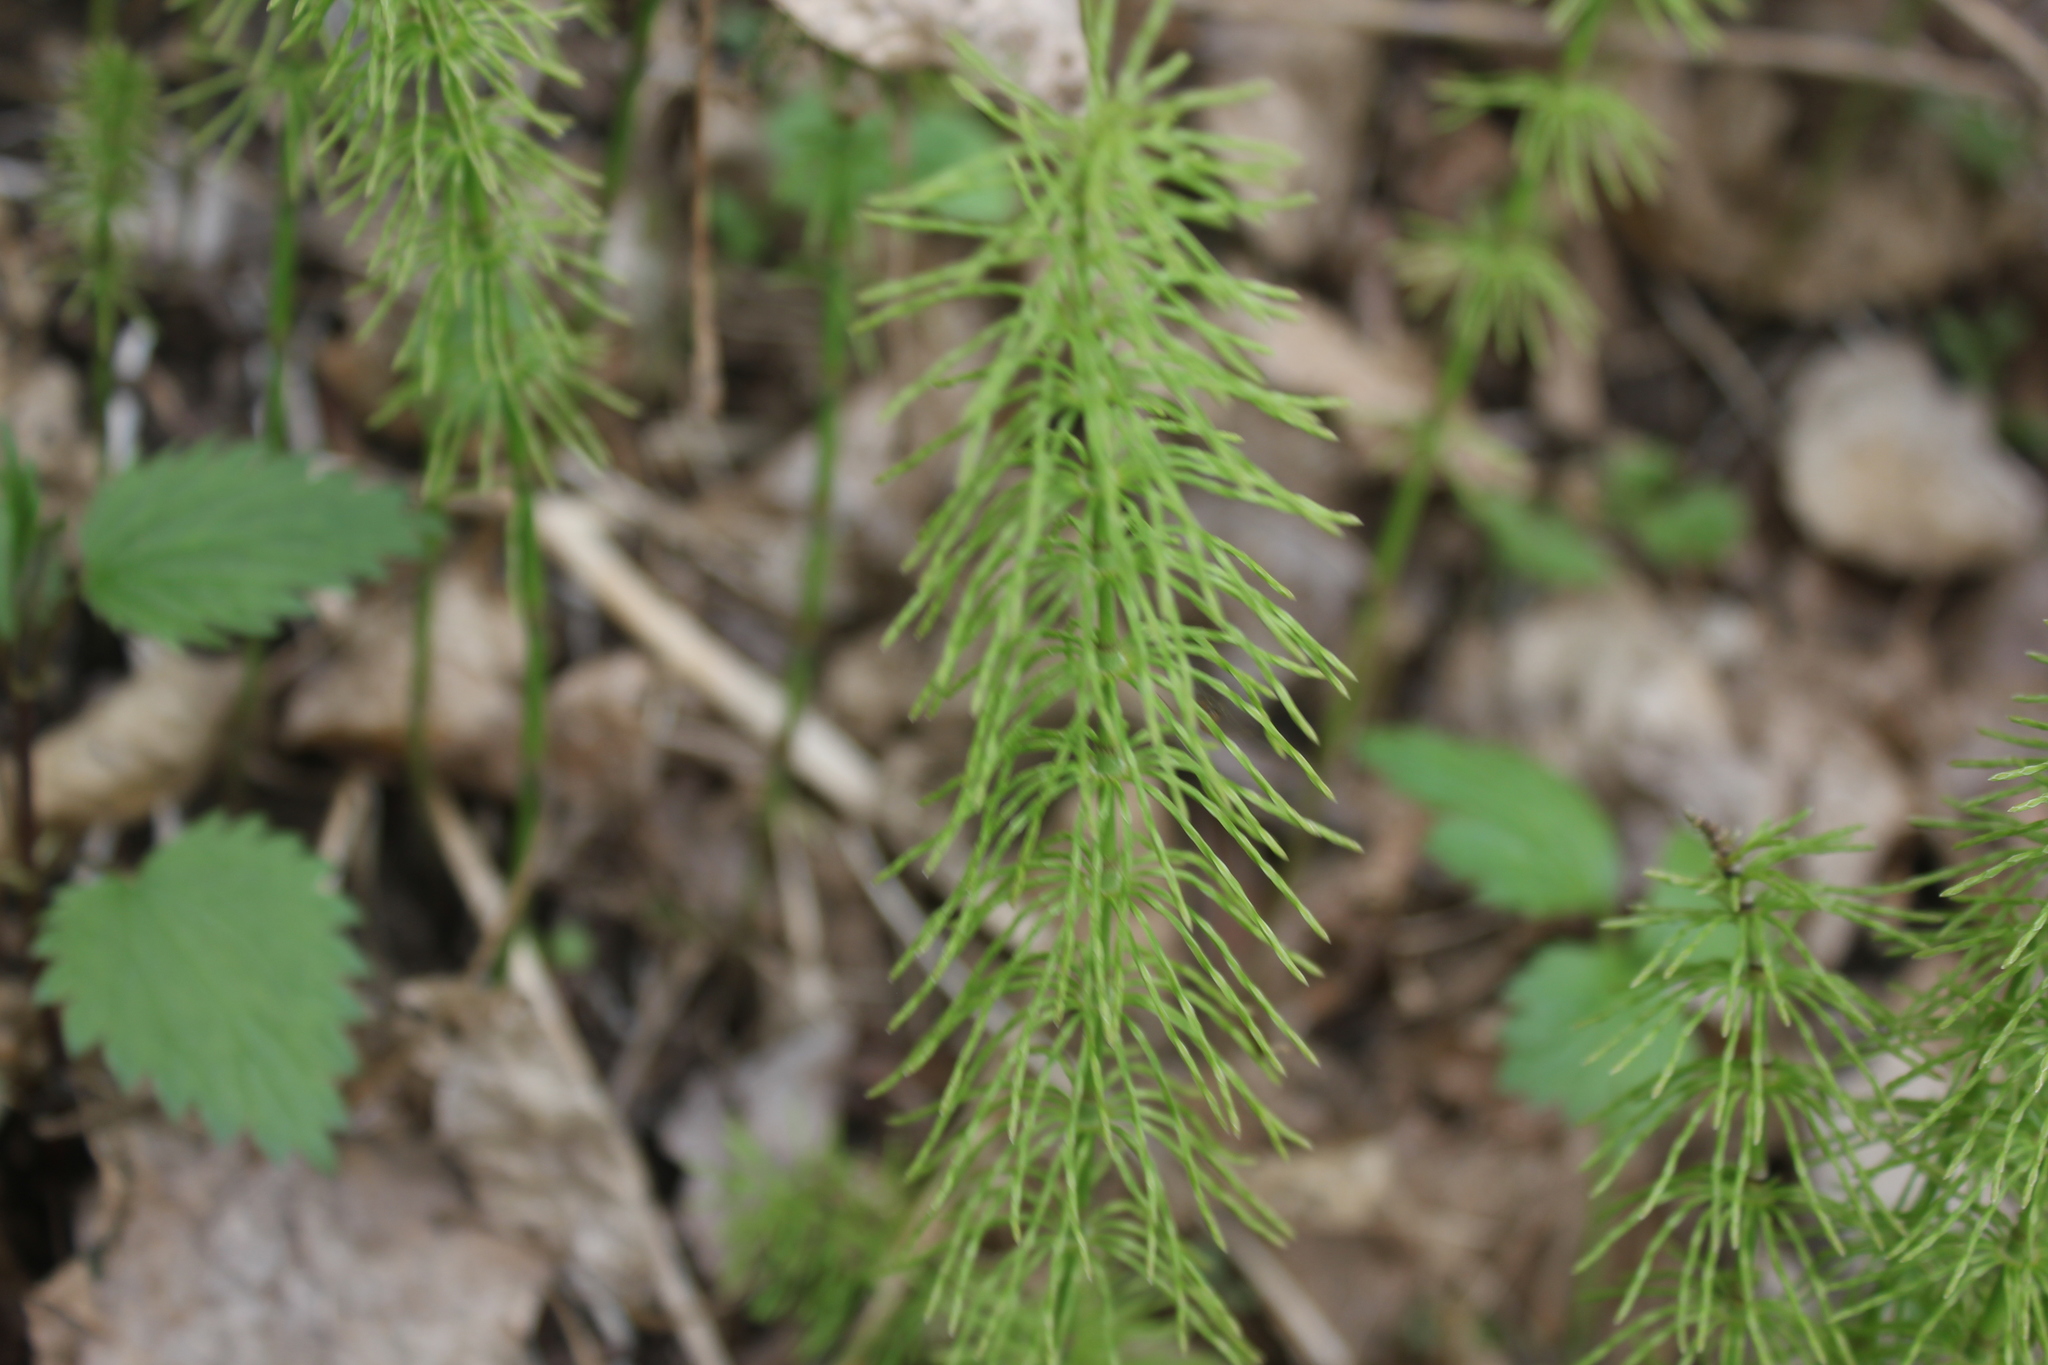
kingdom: Plantae
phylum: Tracheophyta
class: Polypodiopsida
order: Equisetales
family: Equisetaceae
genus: Equisetum
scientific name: Equisetum pratense
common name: Meadow horsetail
